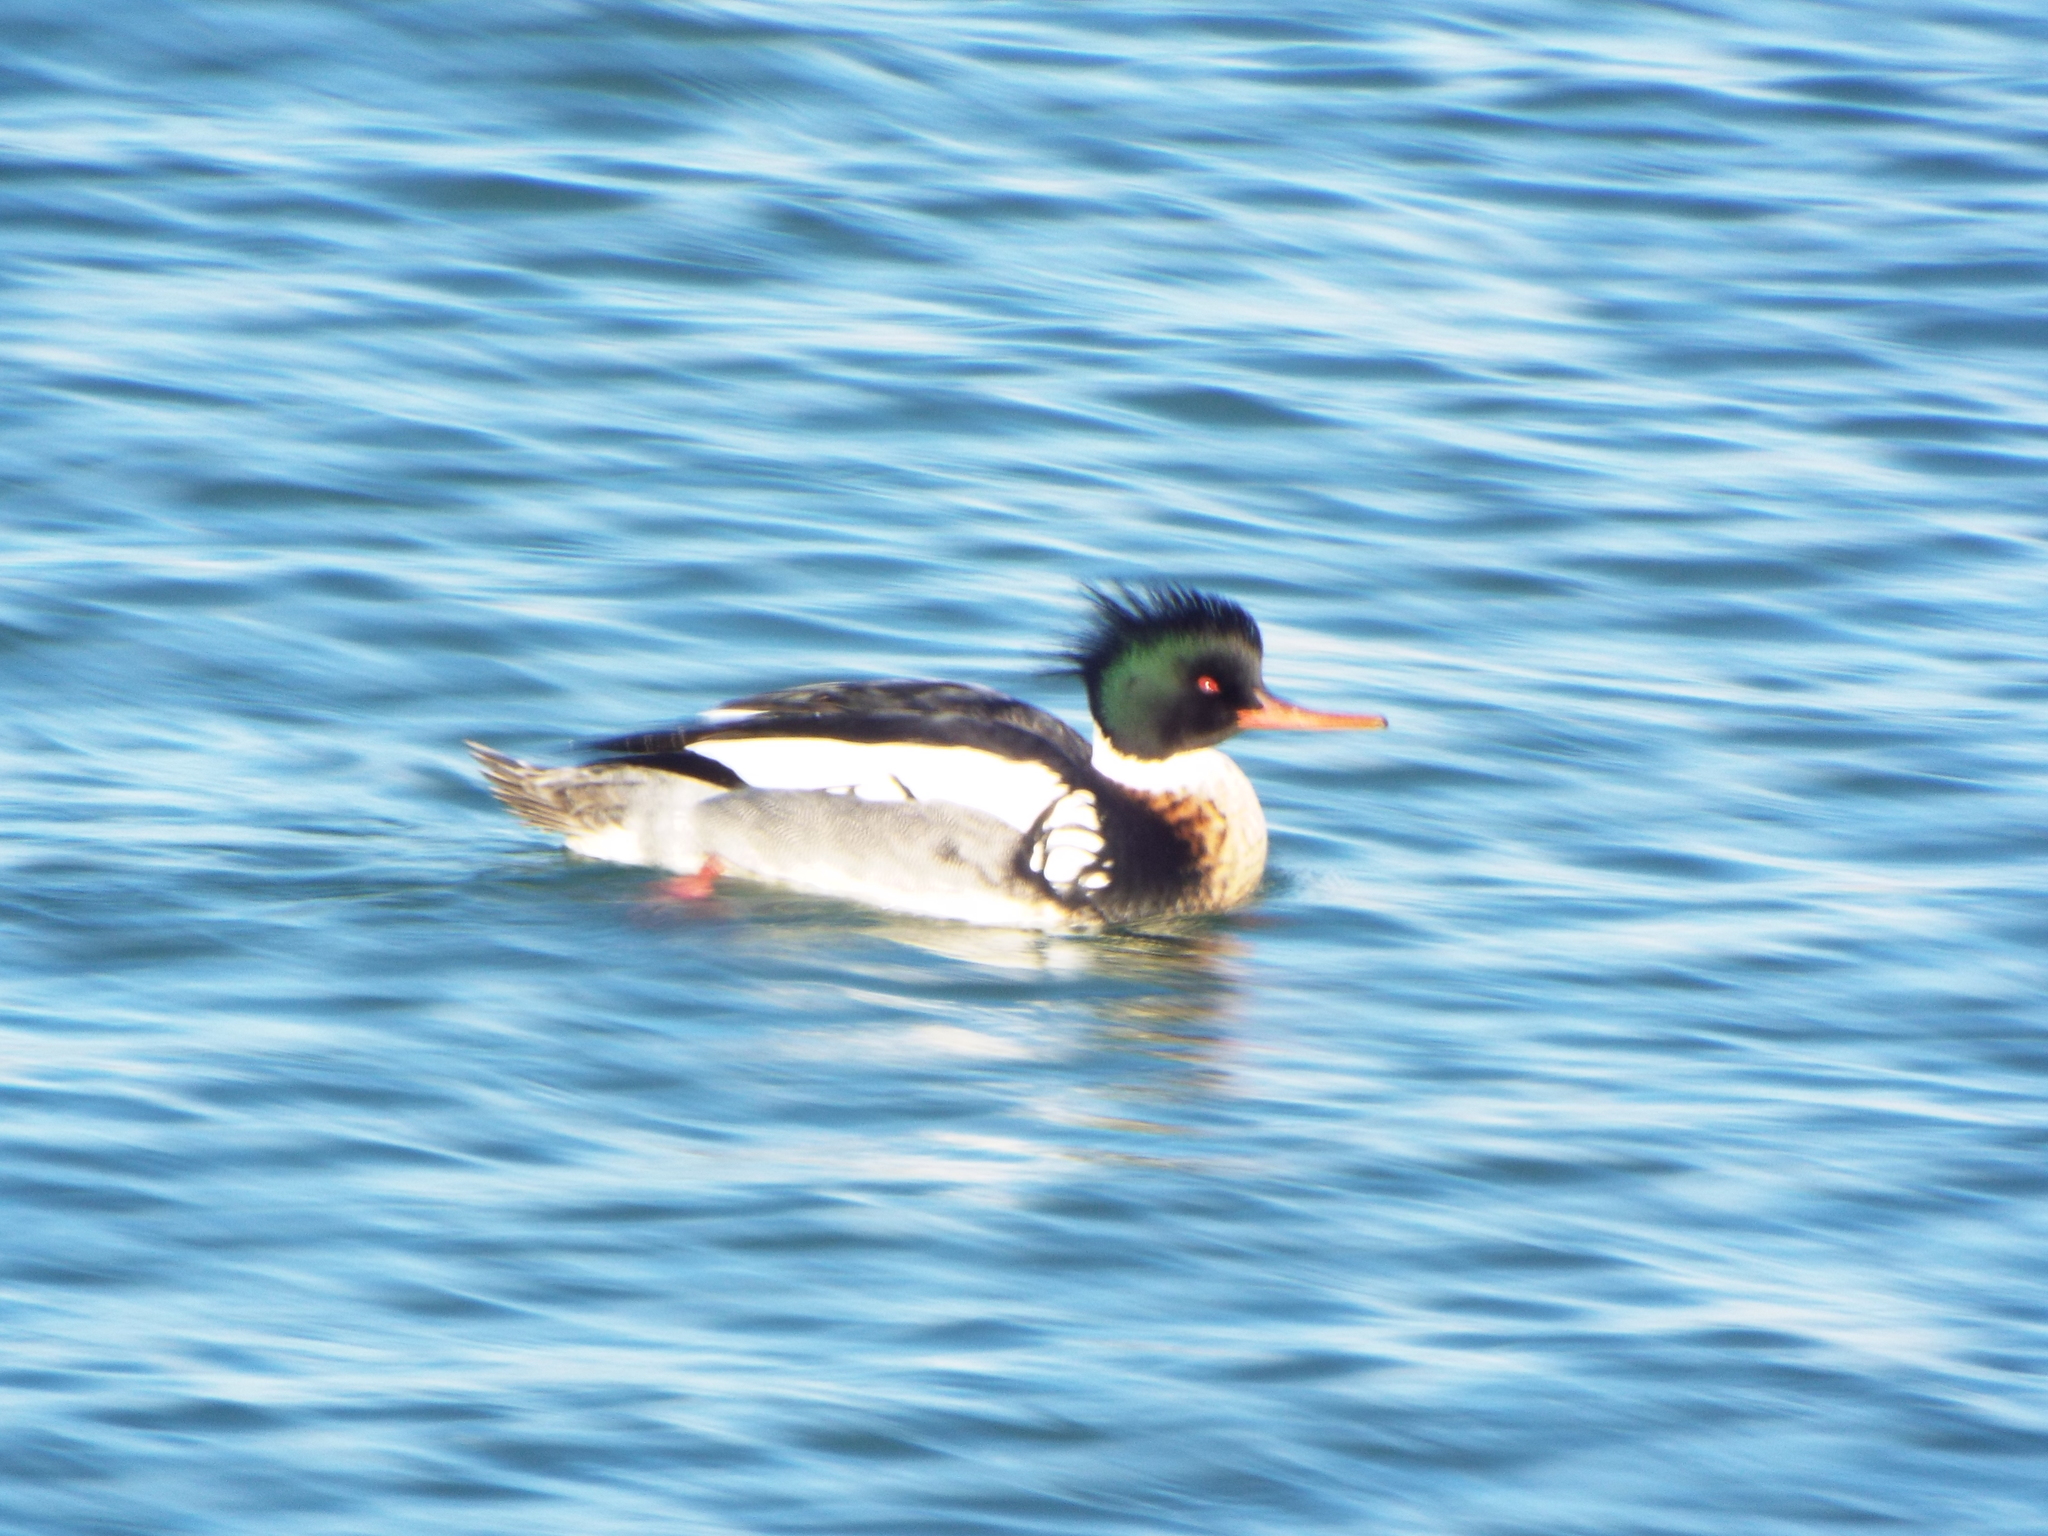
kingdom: Animalia
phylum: Chordata
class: Aves
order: Anseriformes
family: Anatidae
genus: Mergus
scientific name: Mergus serrator
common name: Red-breasted merganser
